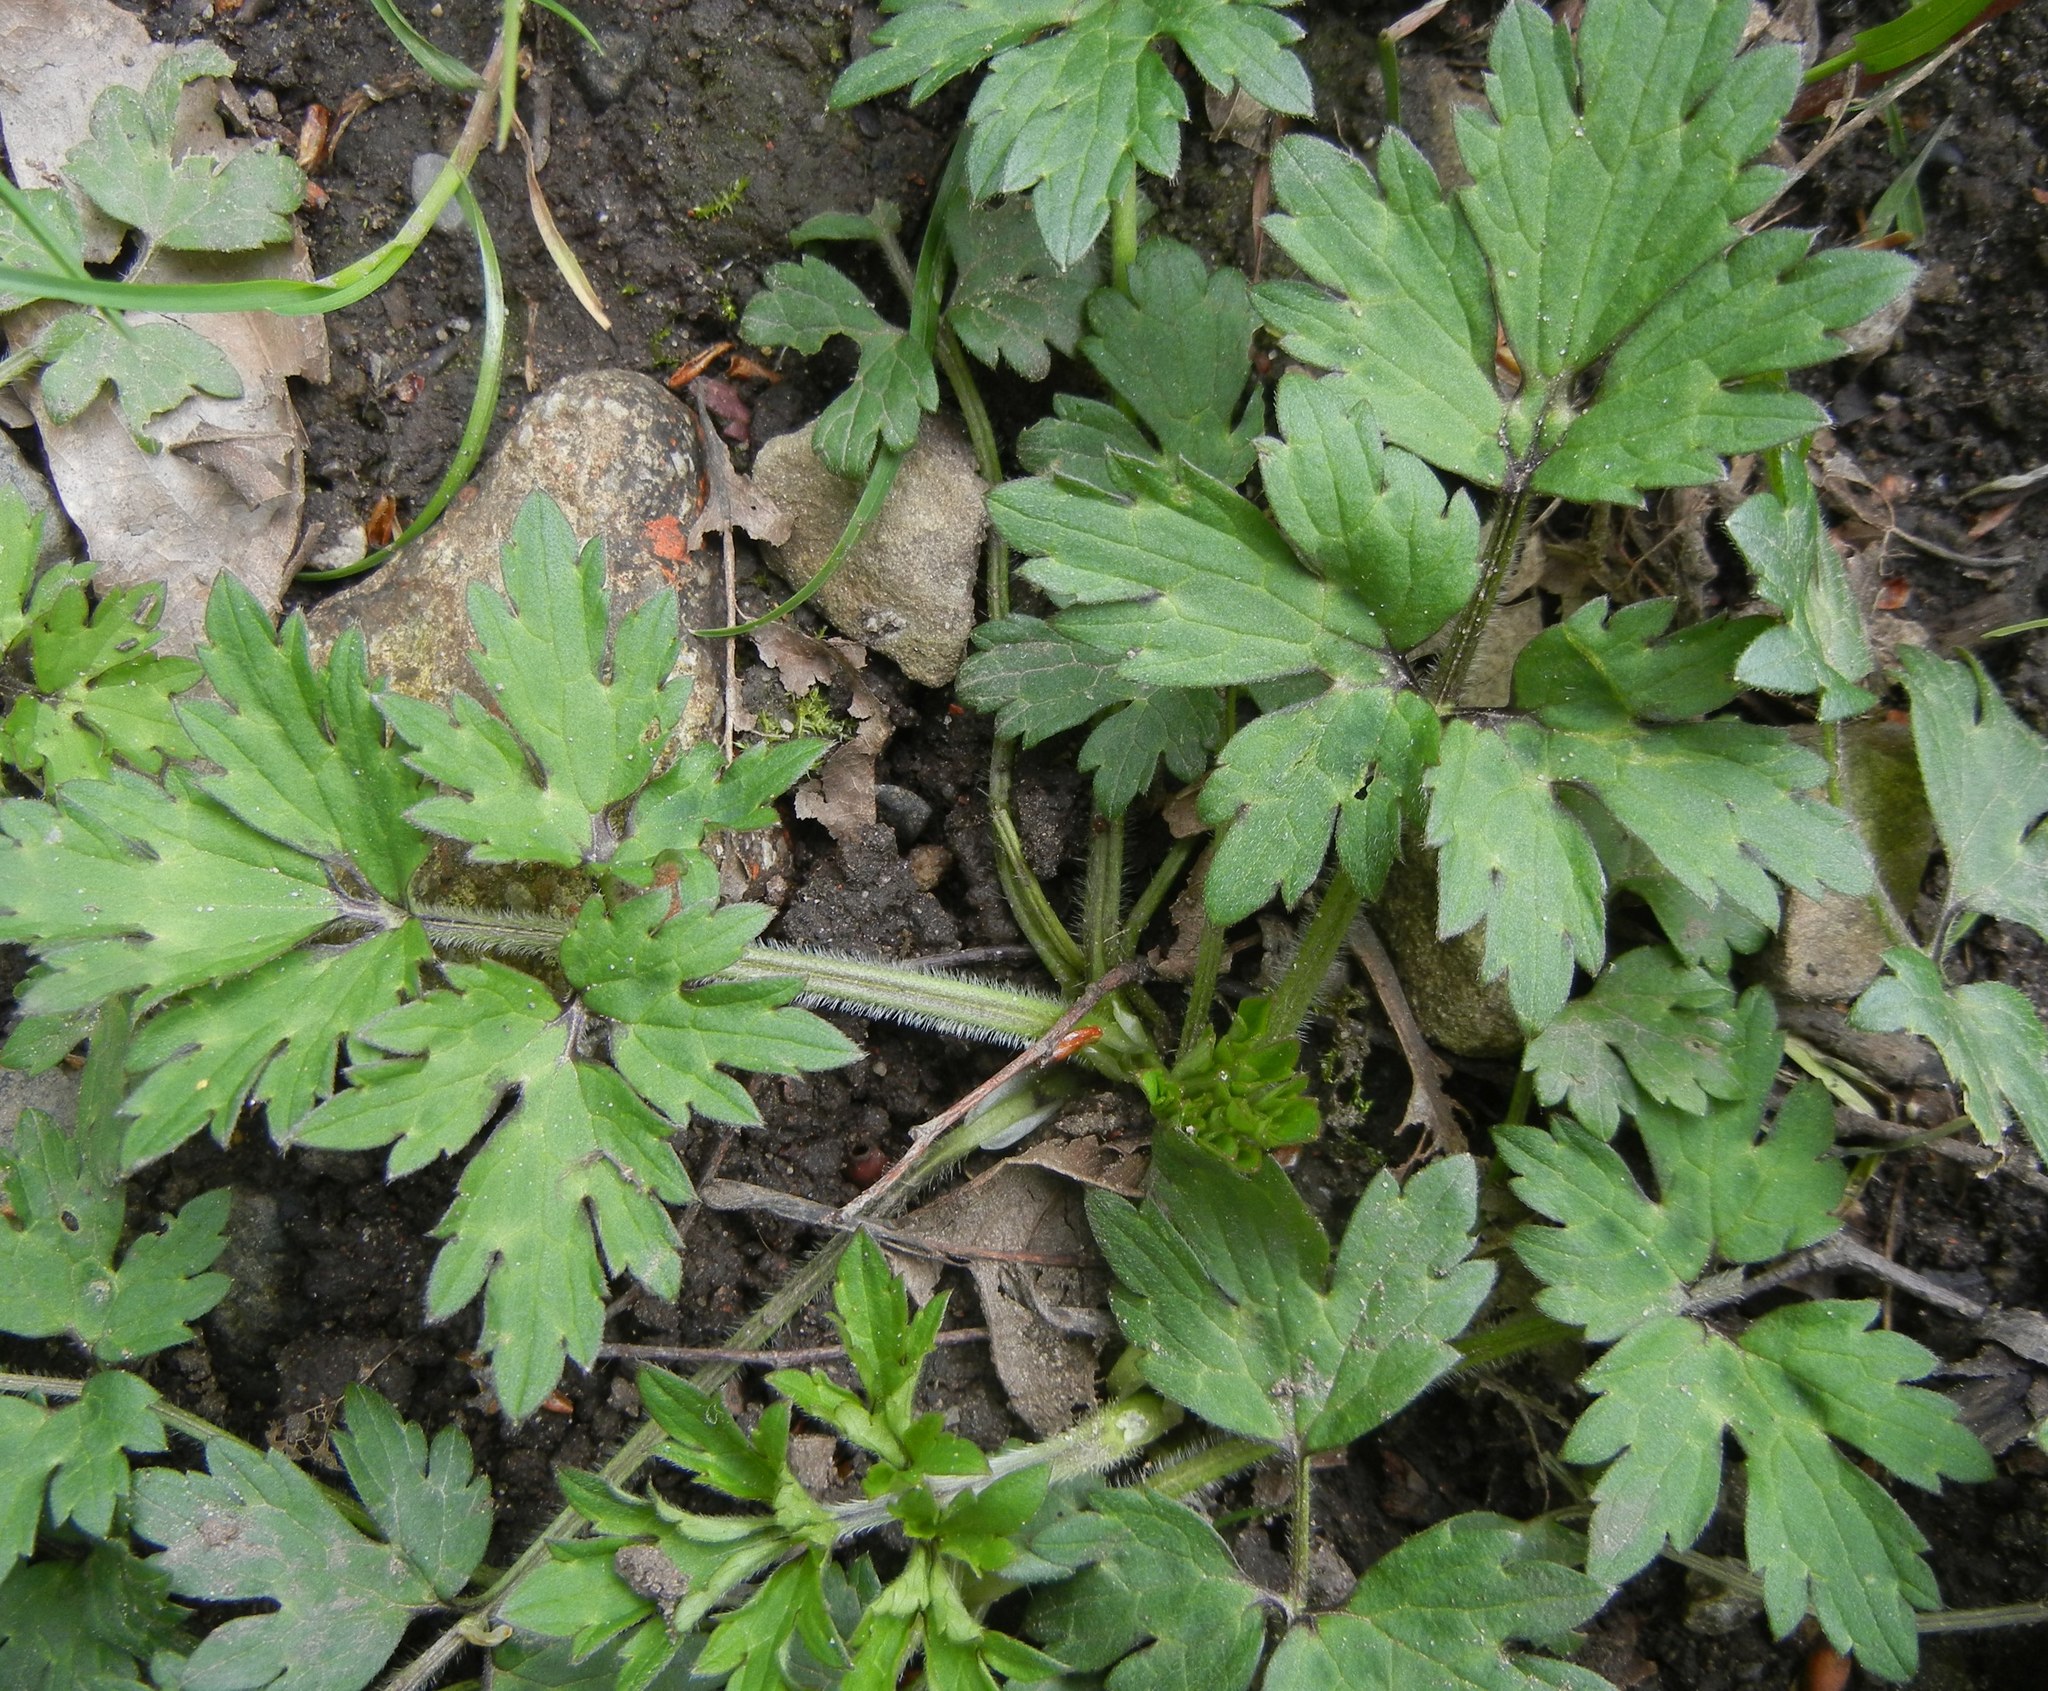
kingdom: Plantae
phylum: Tracheophyta
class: Magnoliopsida
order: Ranunculales
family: Ranunculaceae
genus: Ranunculus
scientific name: Ranunculus repens
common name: Creeping buttercup
